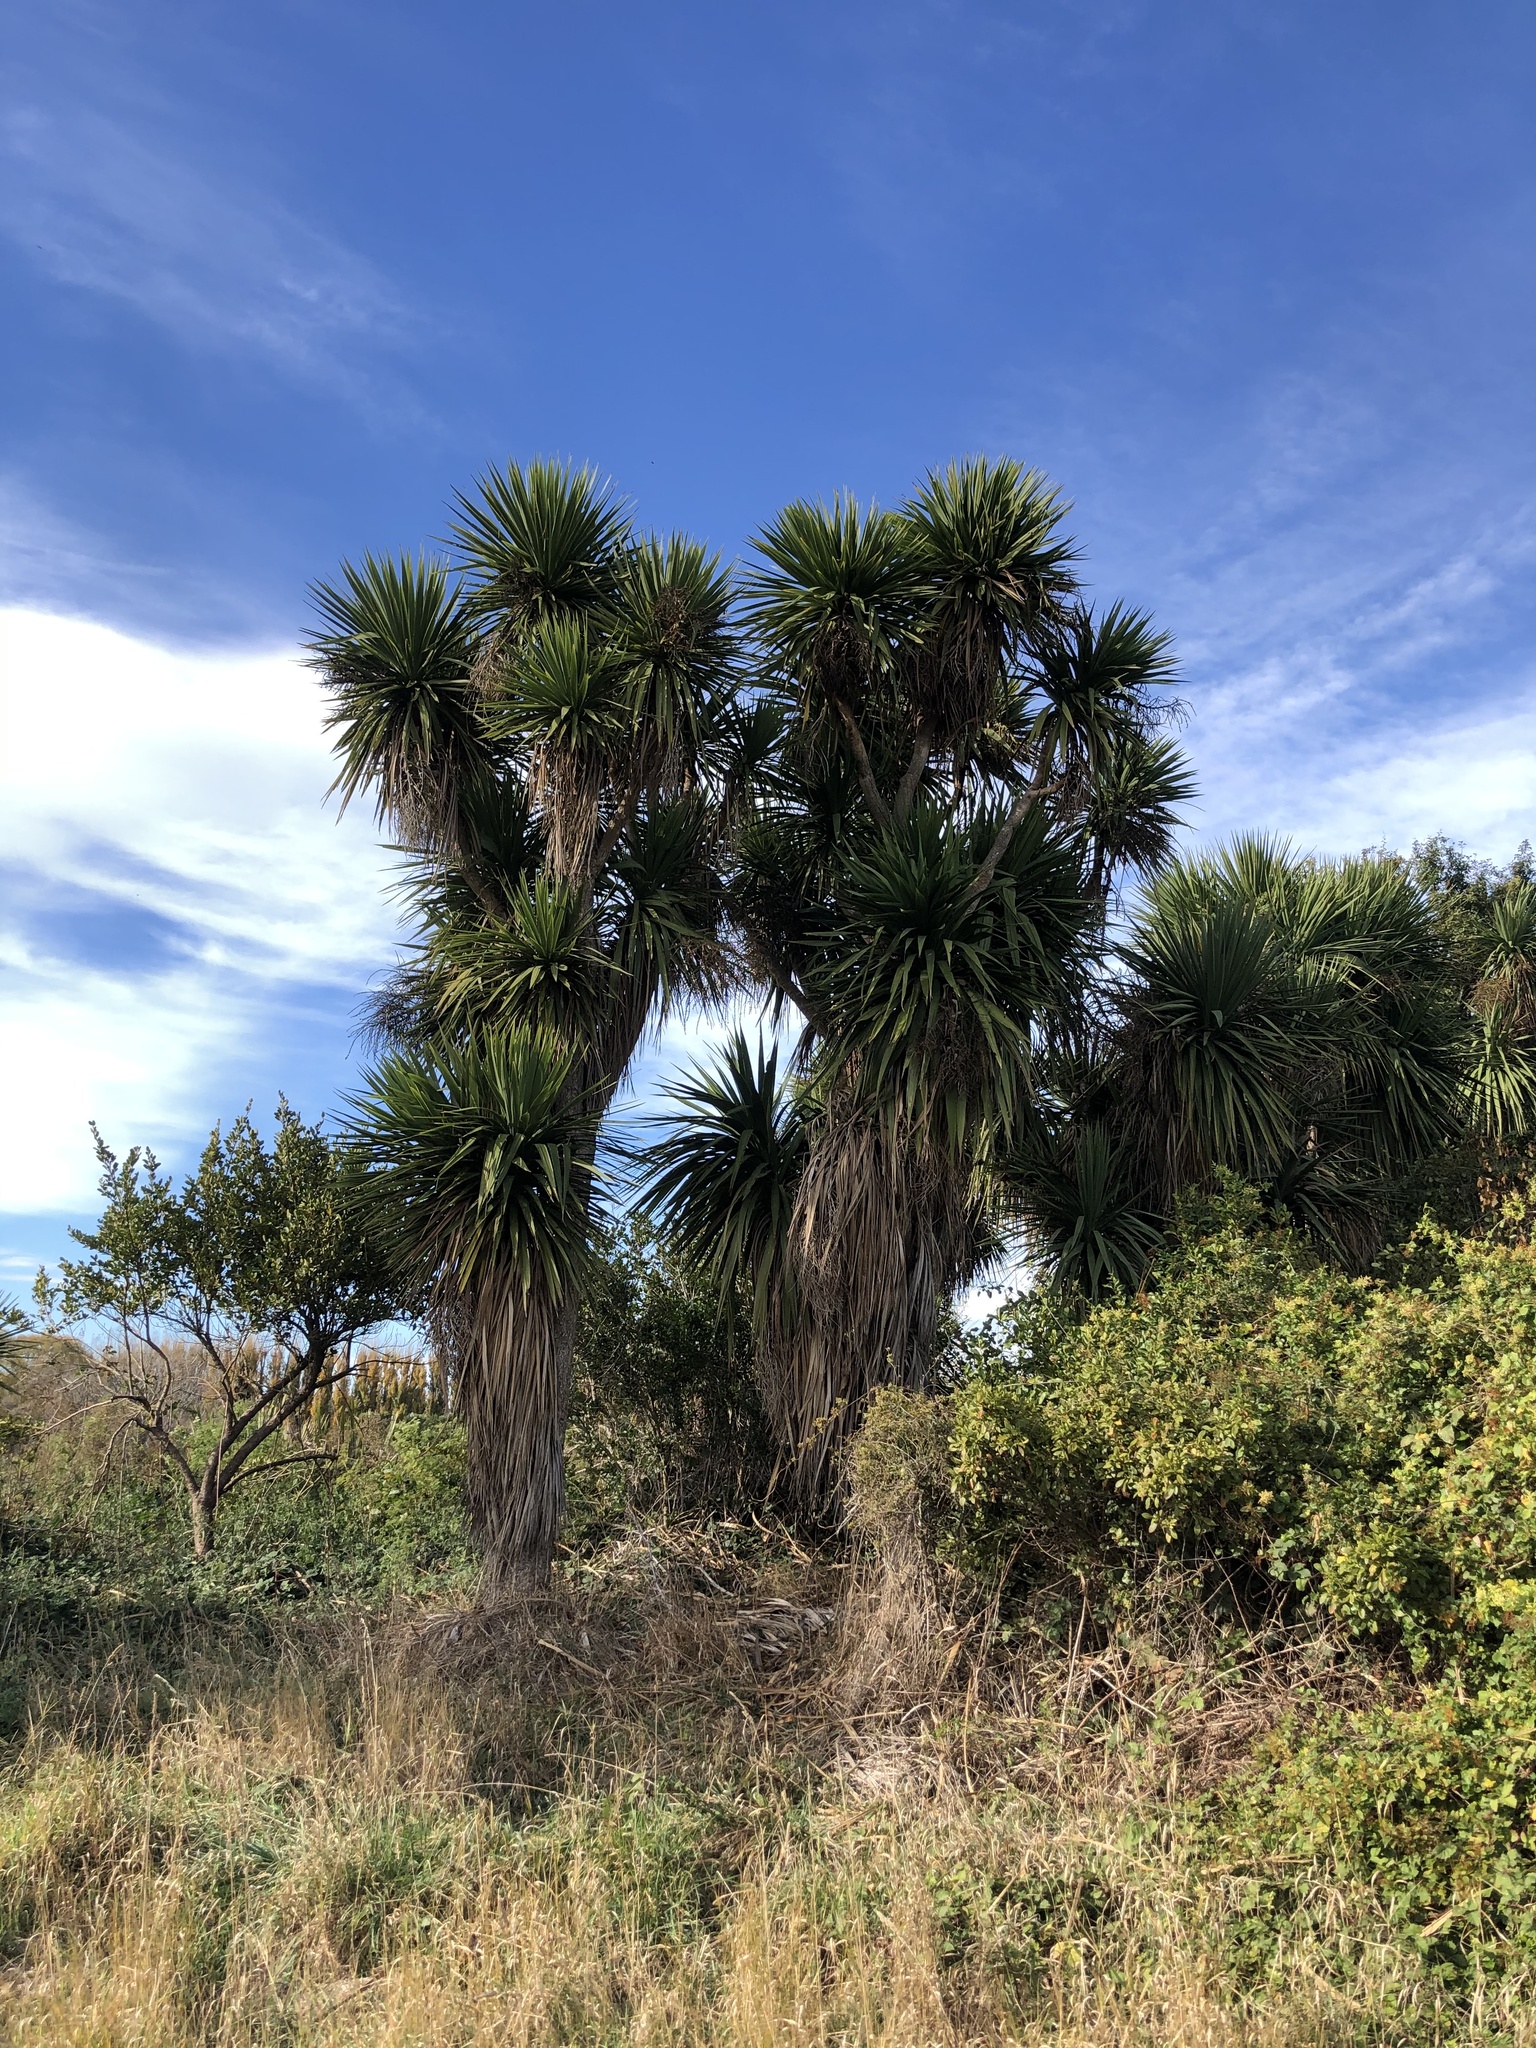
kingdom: Plantae
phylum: Tracheophyta
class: Liliopsida
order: Asparagales
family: Asparagaceae
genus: Cordyline
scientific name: Cordyline australis
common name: Cabbage-palm
